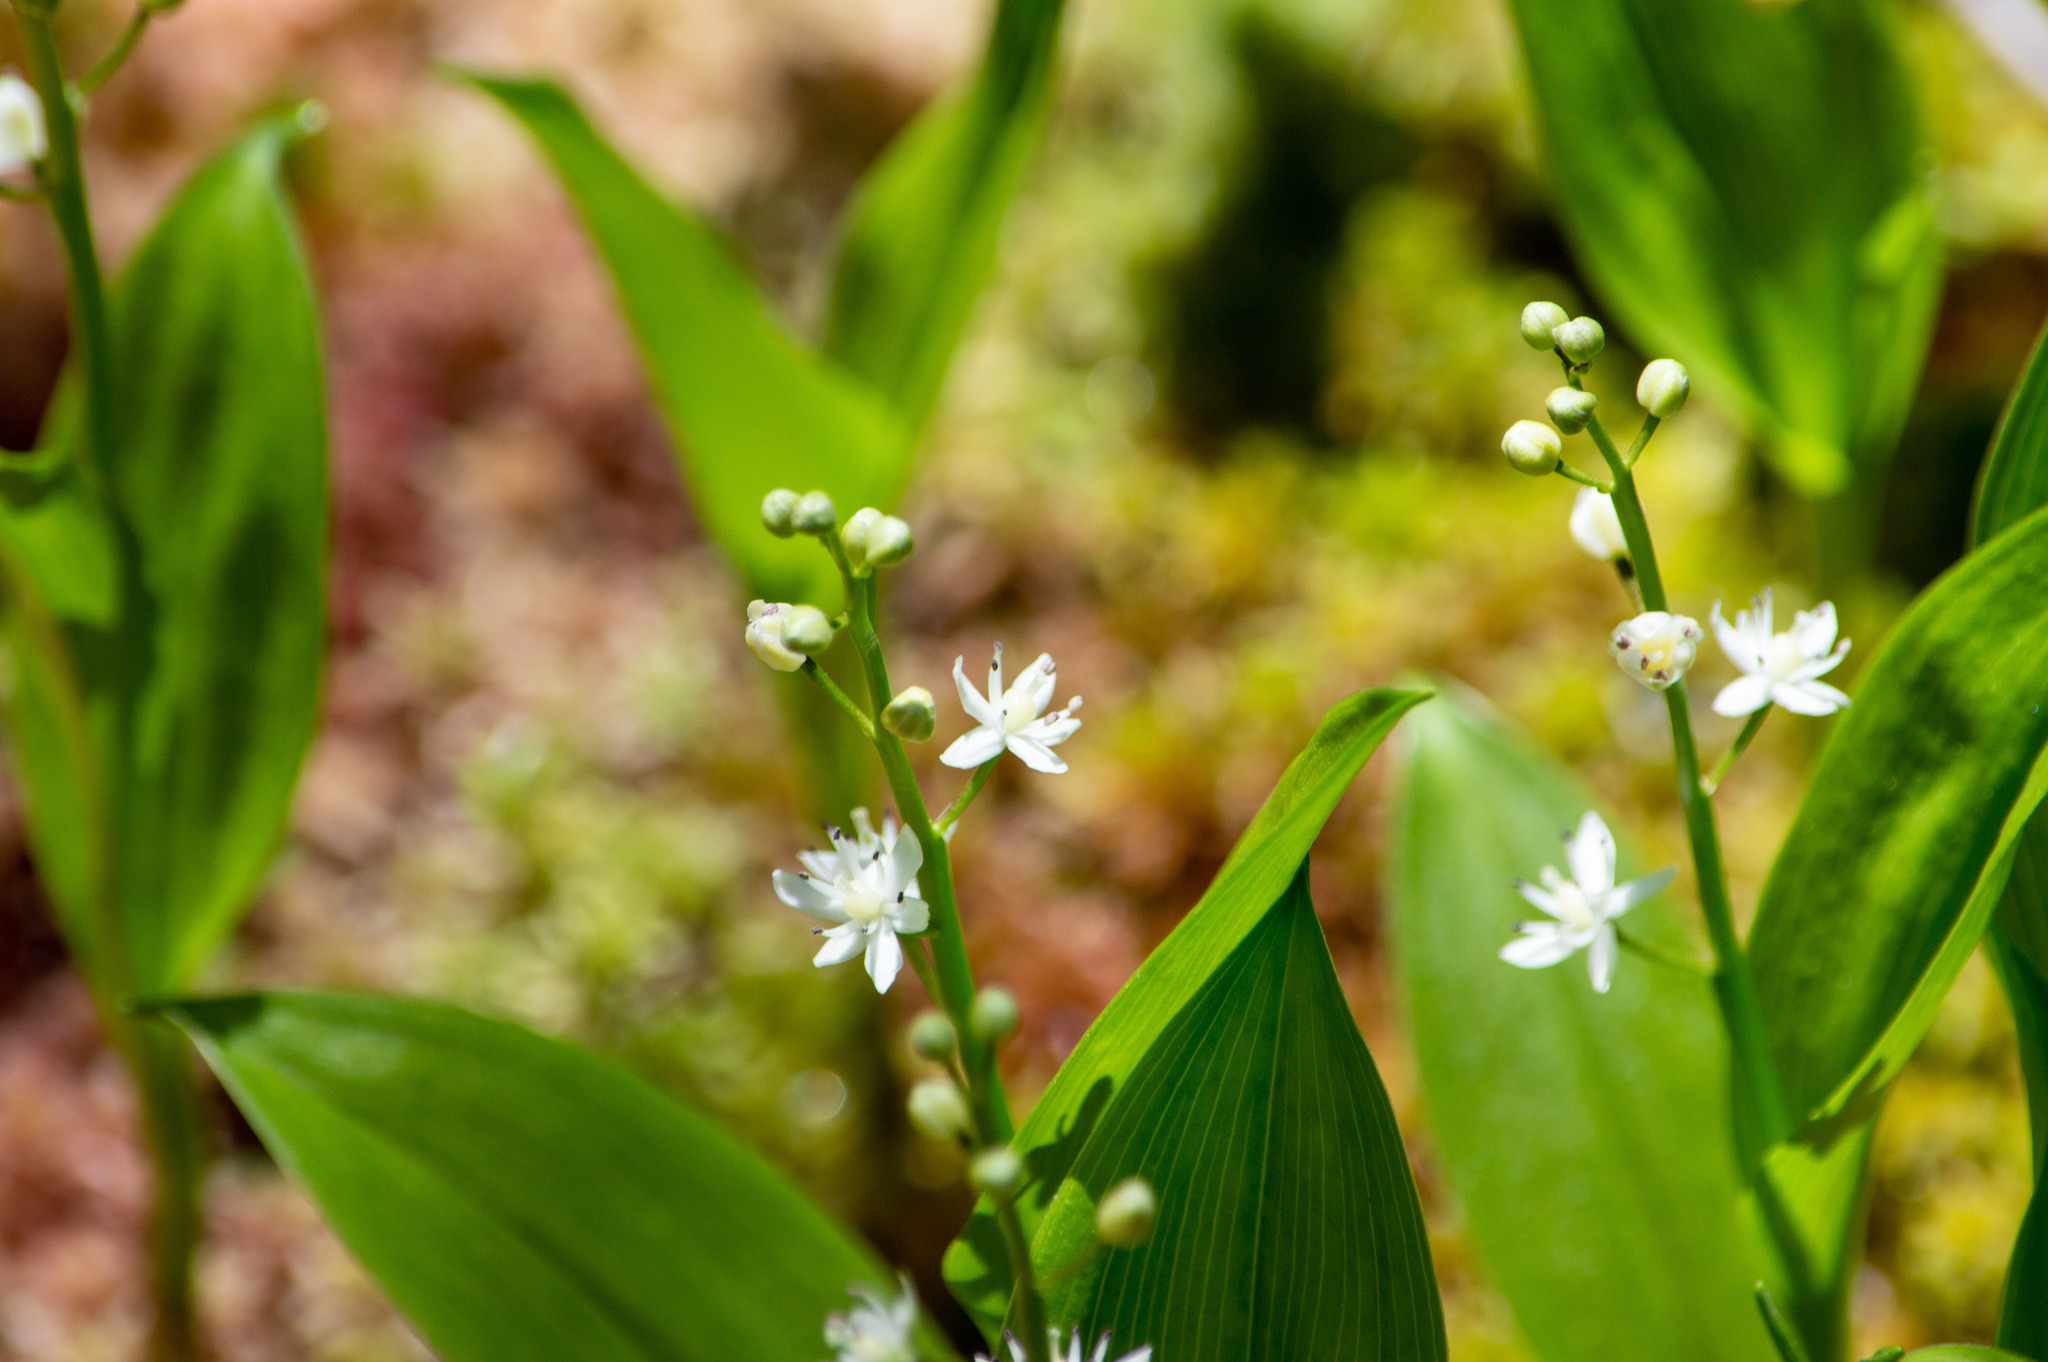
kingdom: Plantae
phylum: Tracheophyta
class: Liliopsida
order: Asparagales
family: Asparagaceae
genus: Maianthemum
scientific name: Maianthemum trifolium
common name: Swamp false solomon's seal
